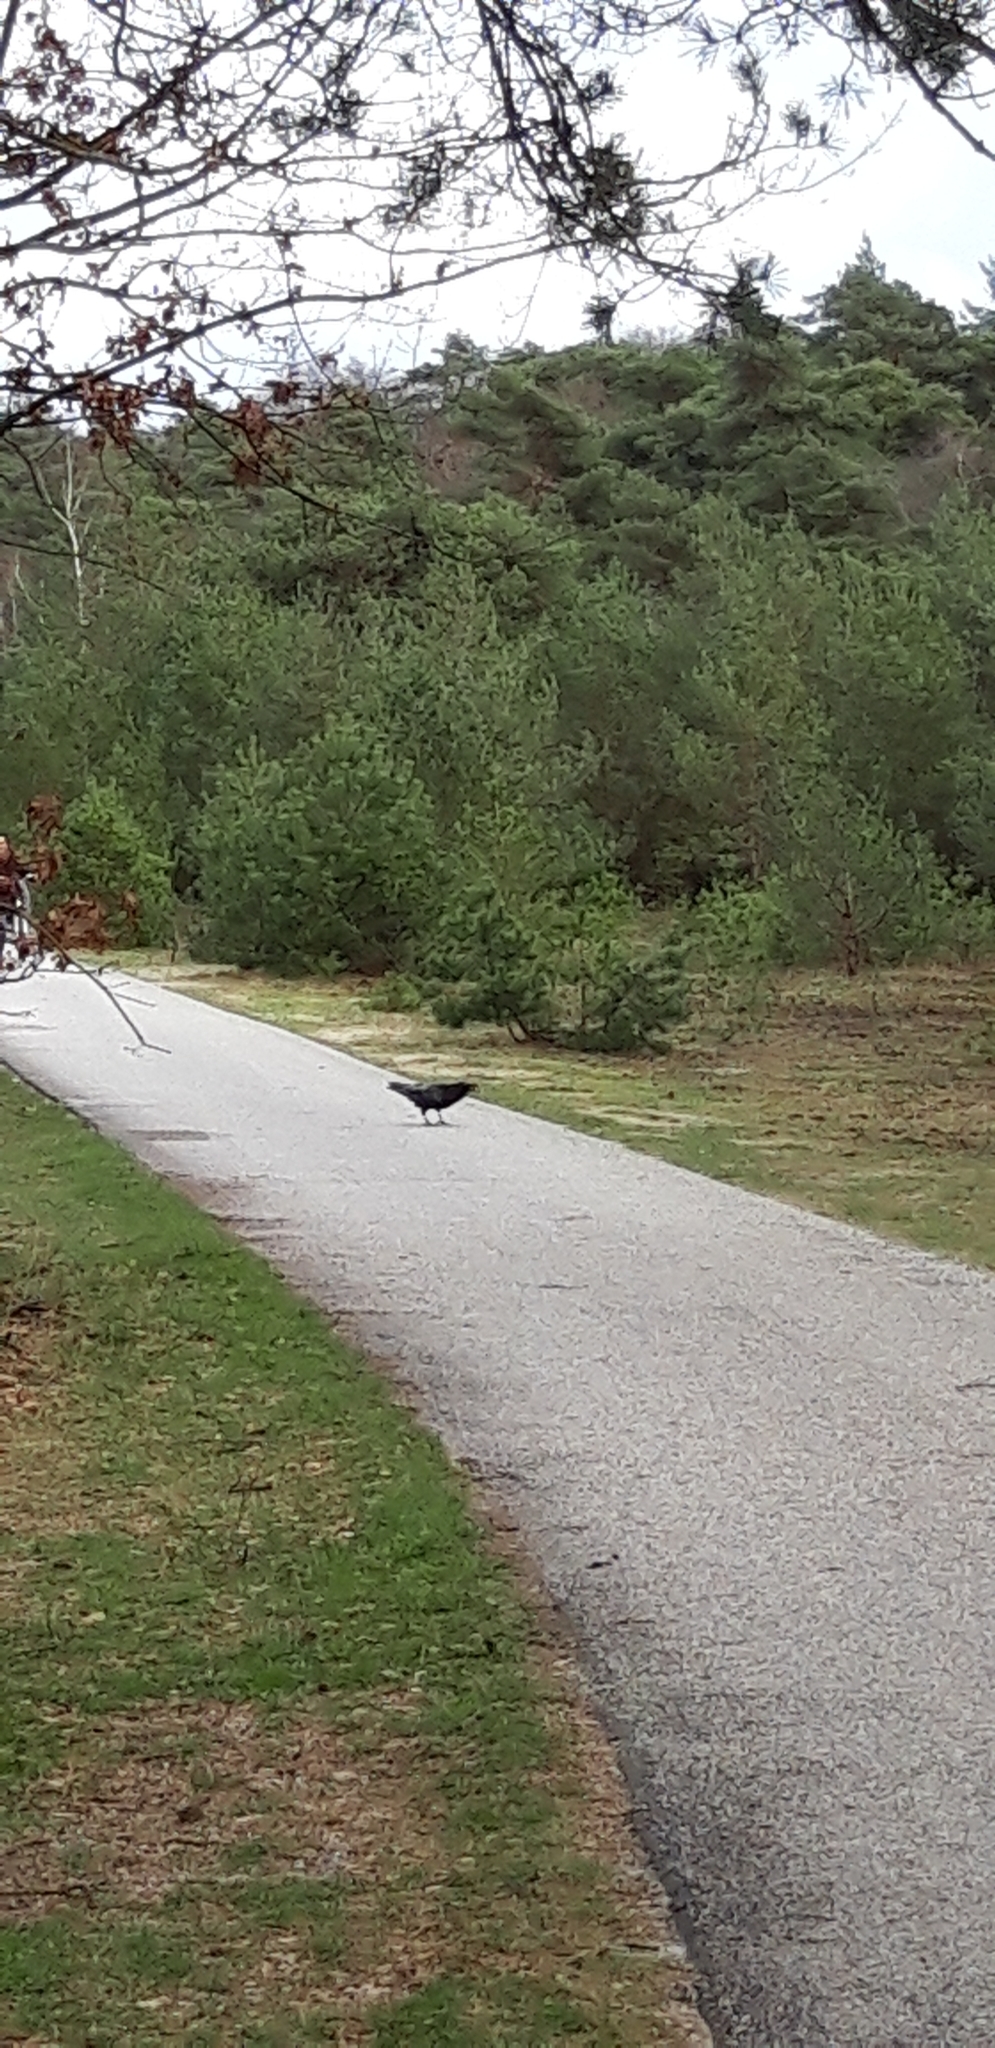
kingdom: Animalia
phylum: Chordata
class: Aves
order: Passeriformes
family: Corvidae
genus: Corvus
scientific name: Corvus corax
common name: Common raven
